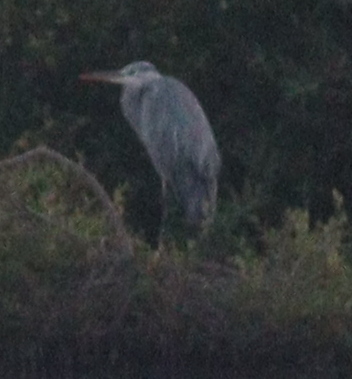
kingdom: Animalia
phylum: Chordata
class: Aves
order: Pelecaniformes
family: Ardeidae
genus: Ardea
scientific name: Ardea cinerea
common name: Grey heron
